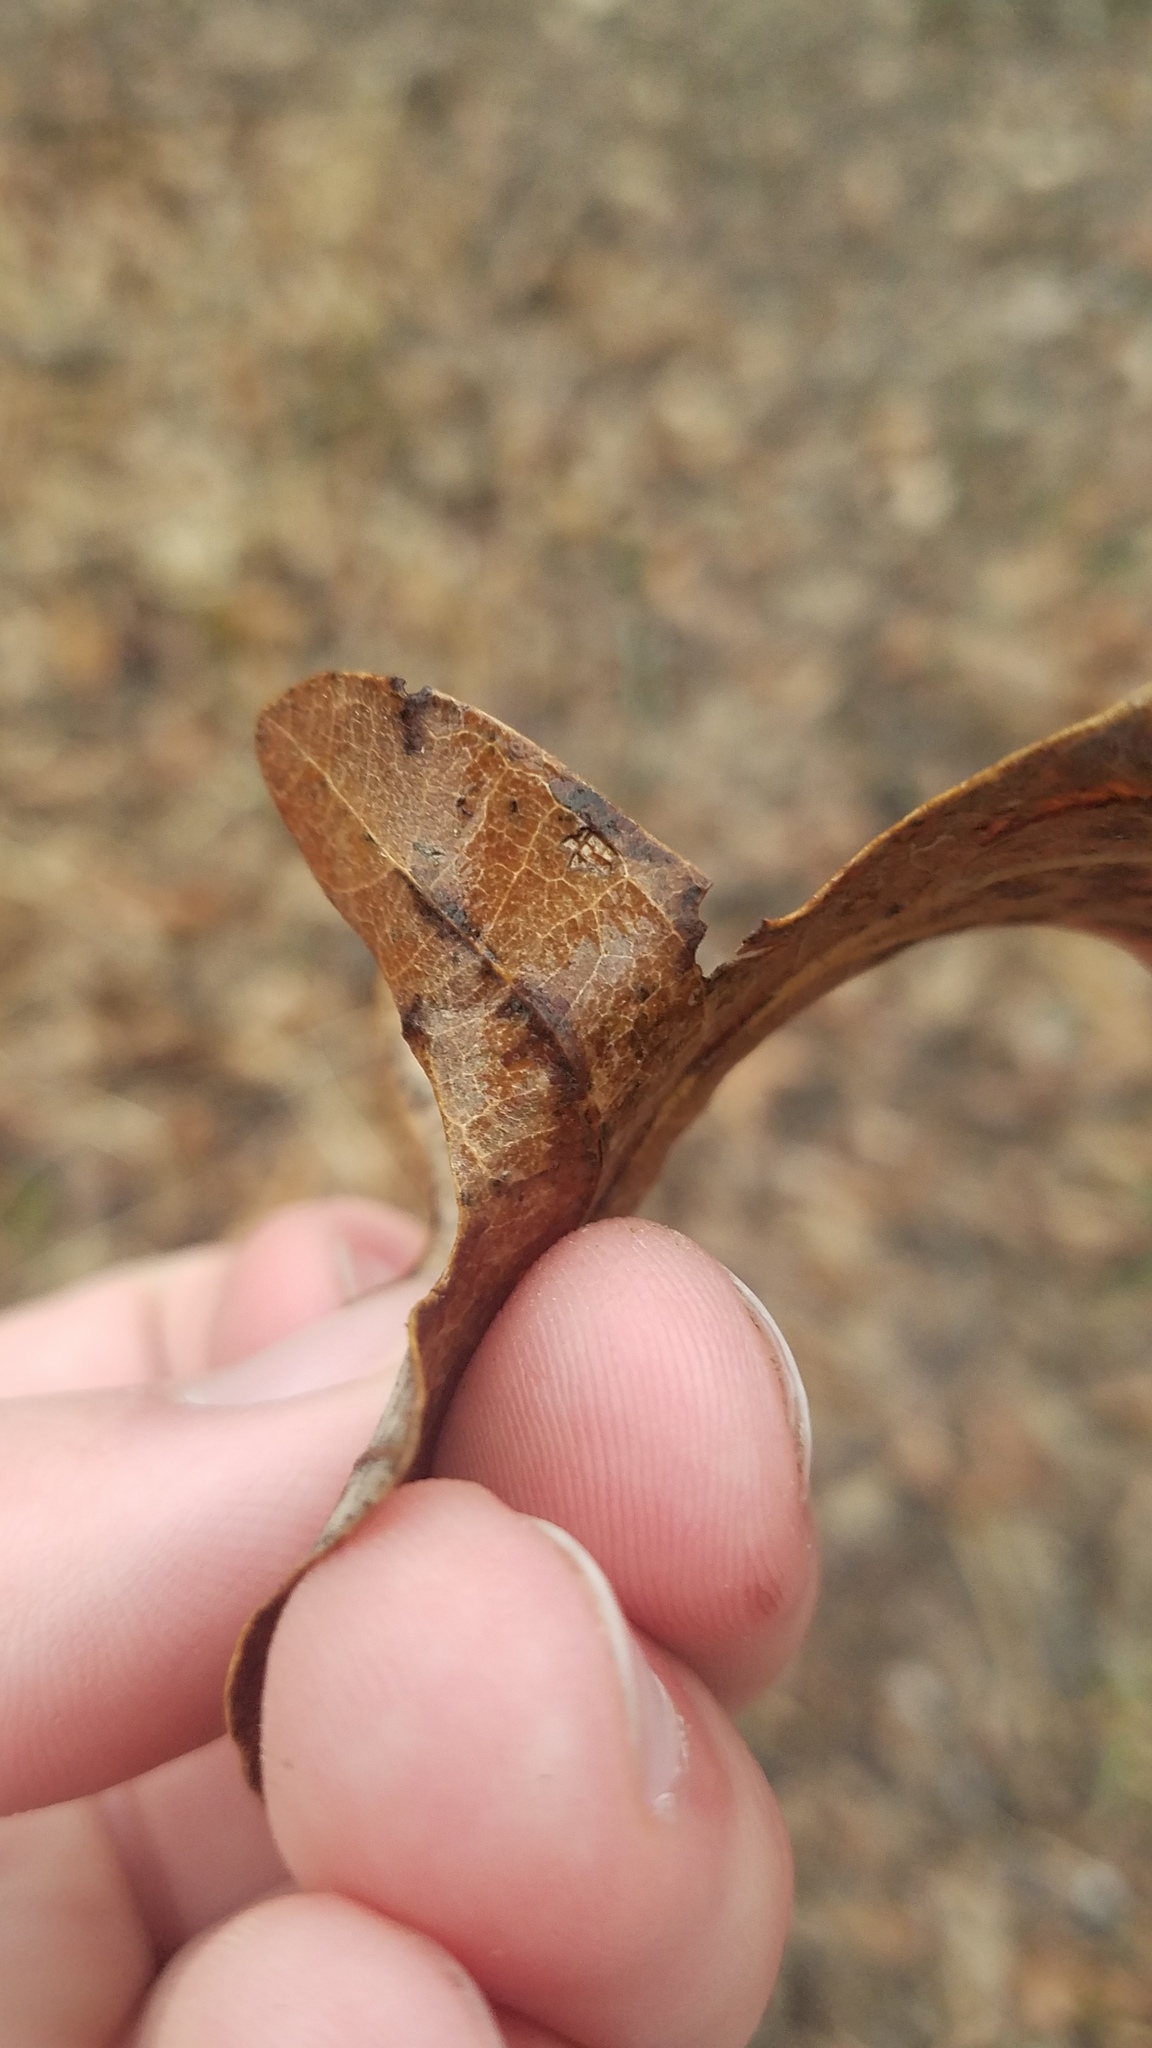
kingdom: Animalia
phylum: Arthropoda
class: Insecta
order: Hymenoptera
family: Cynipidae
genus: Acraspis
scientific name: Acraspis
